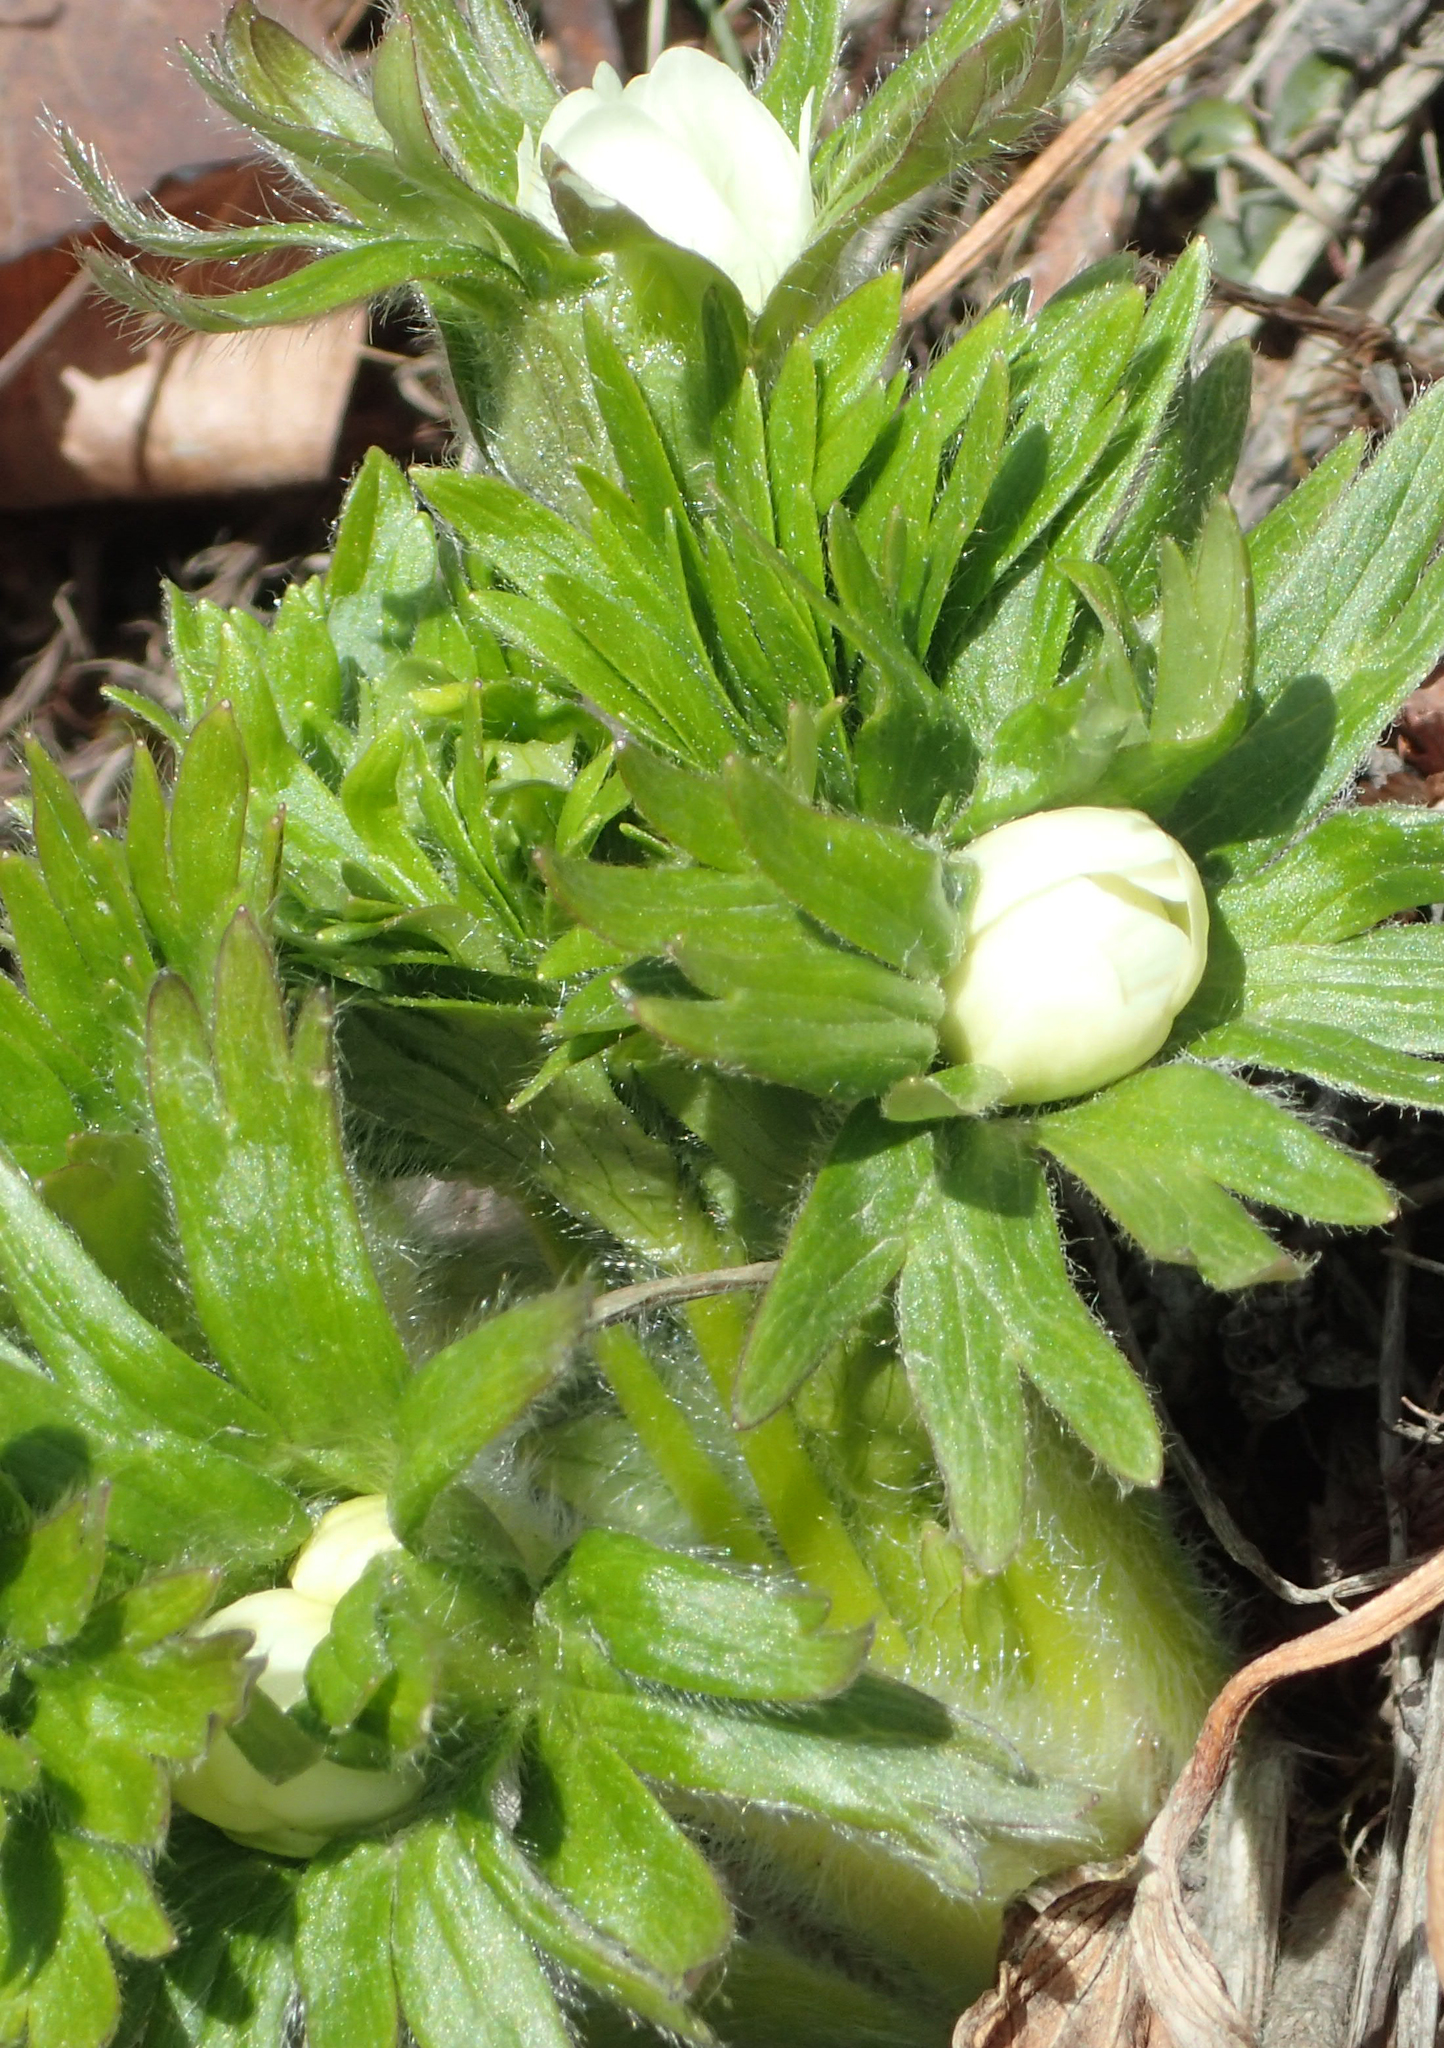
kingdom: Plantae
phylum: Tracheophyta
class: Magnoliopsida
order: Ranunculales
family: Ranunculaceae
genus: Anemonastrum
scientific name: Anemonastrum narcissiflorum
